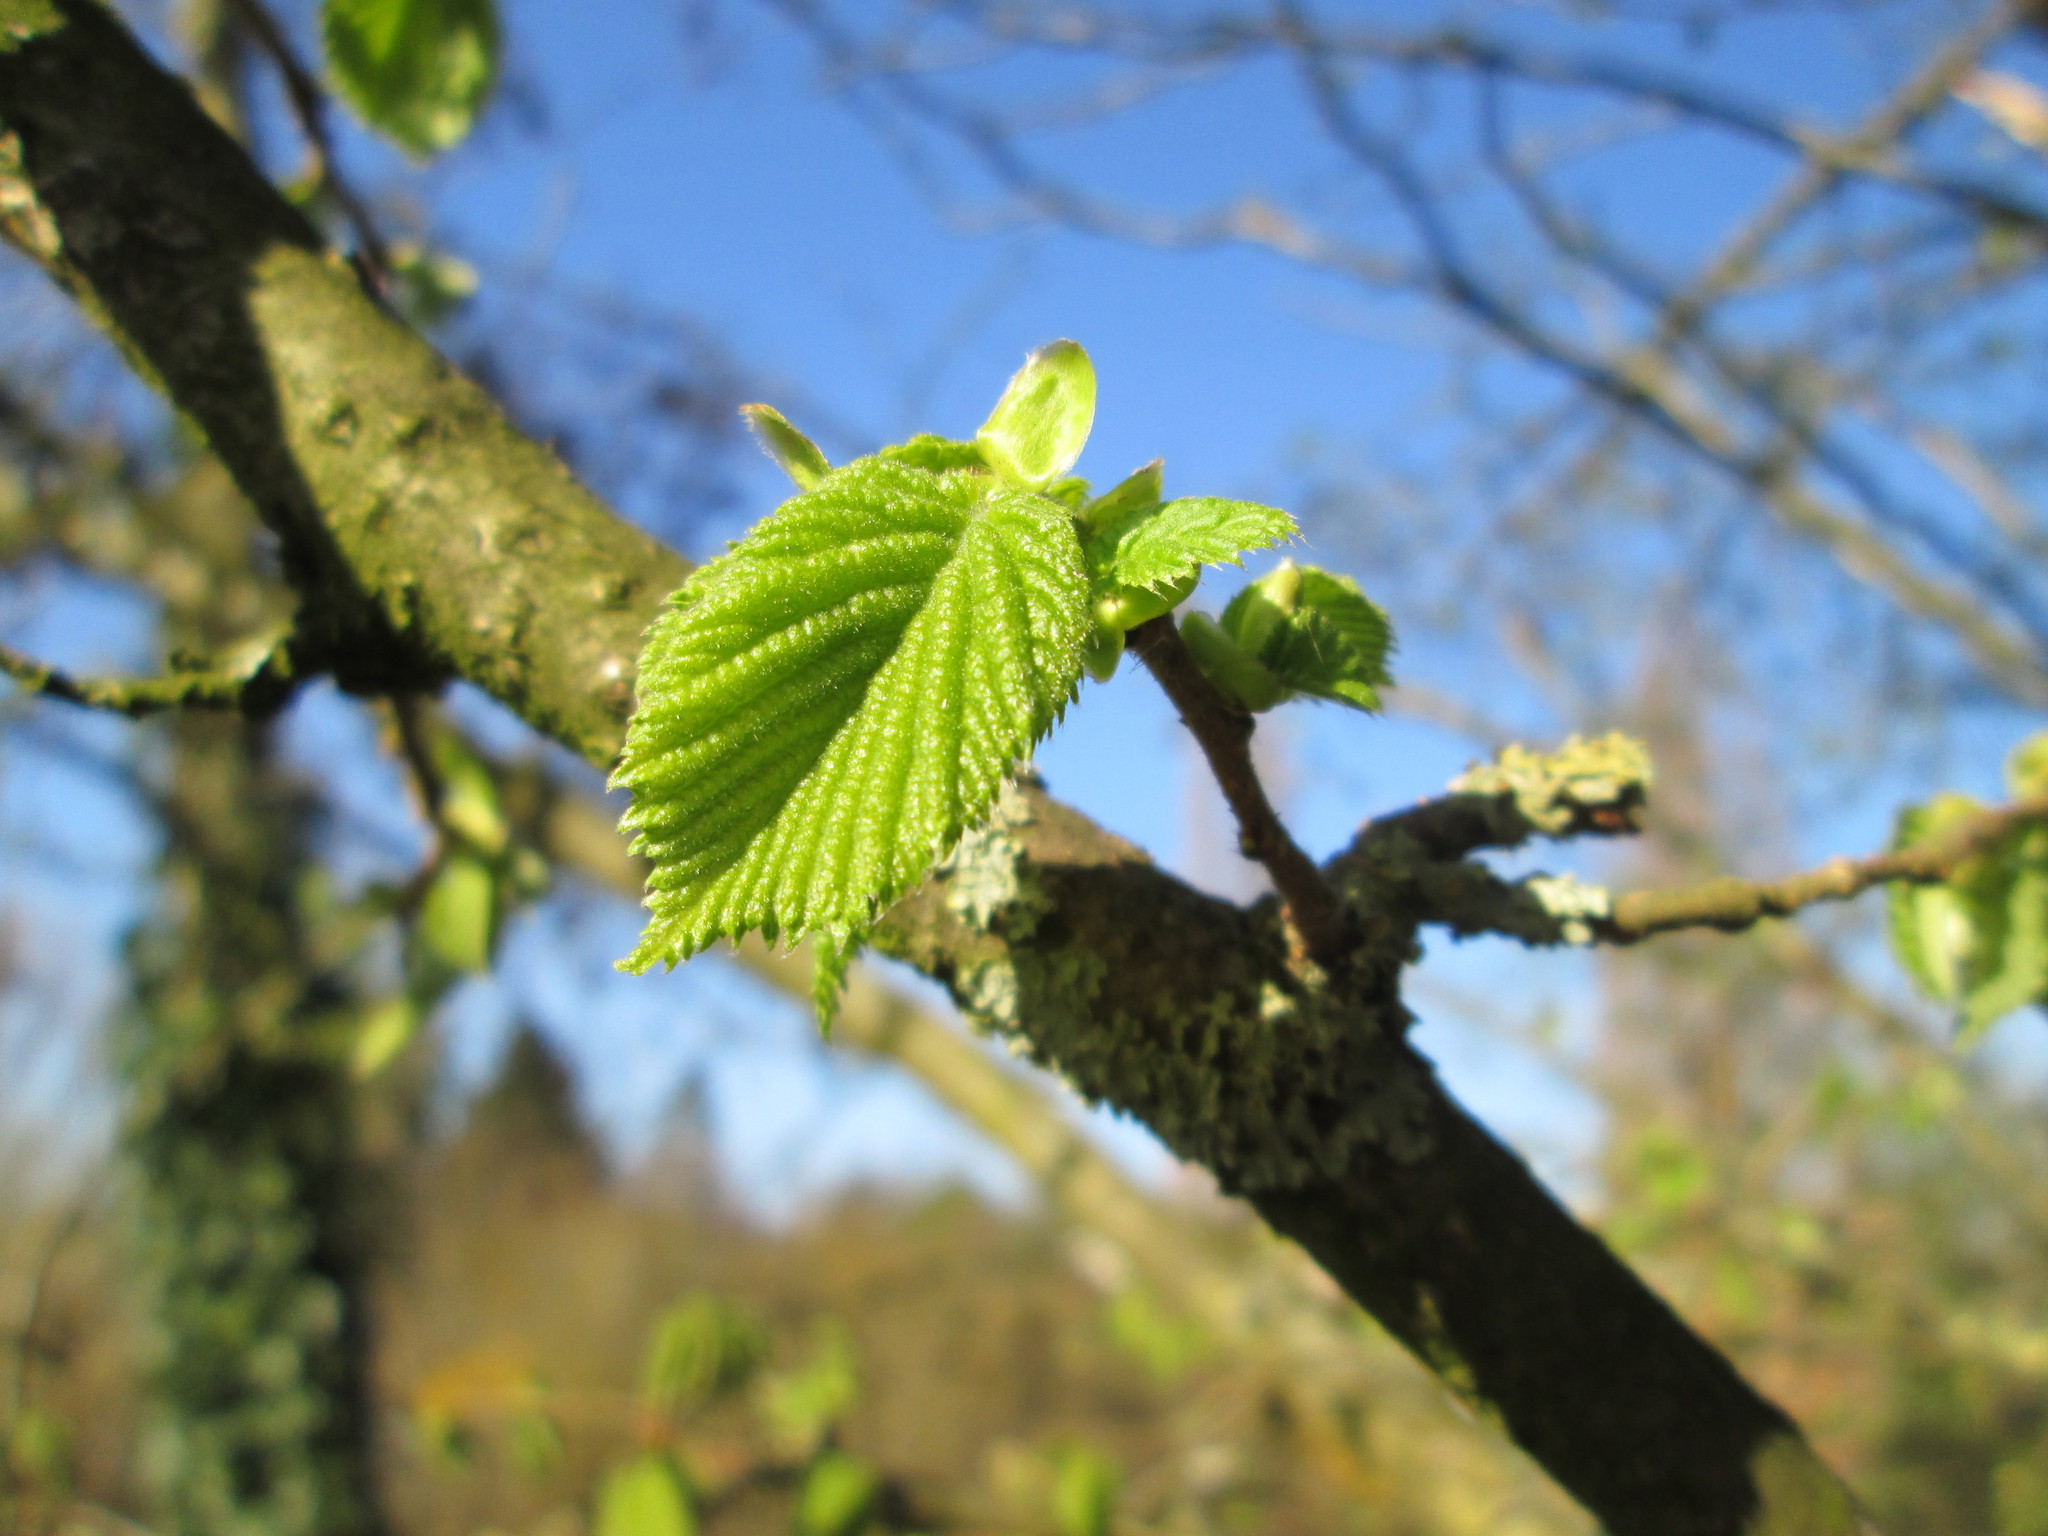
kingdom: Plantae
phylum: Tracheophyta
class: Magnoliopsida
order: Fagales
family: Betulaceae
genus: Corylus
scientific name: Corylus avellana
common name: European hazel
